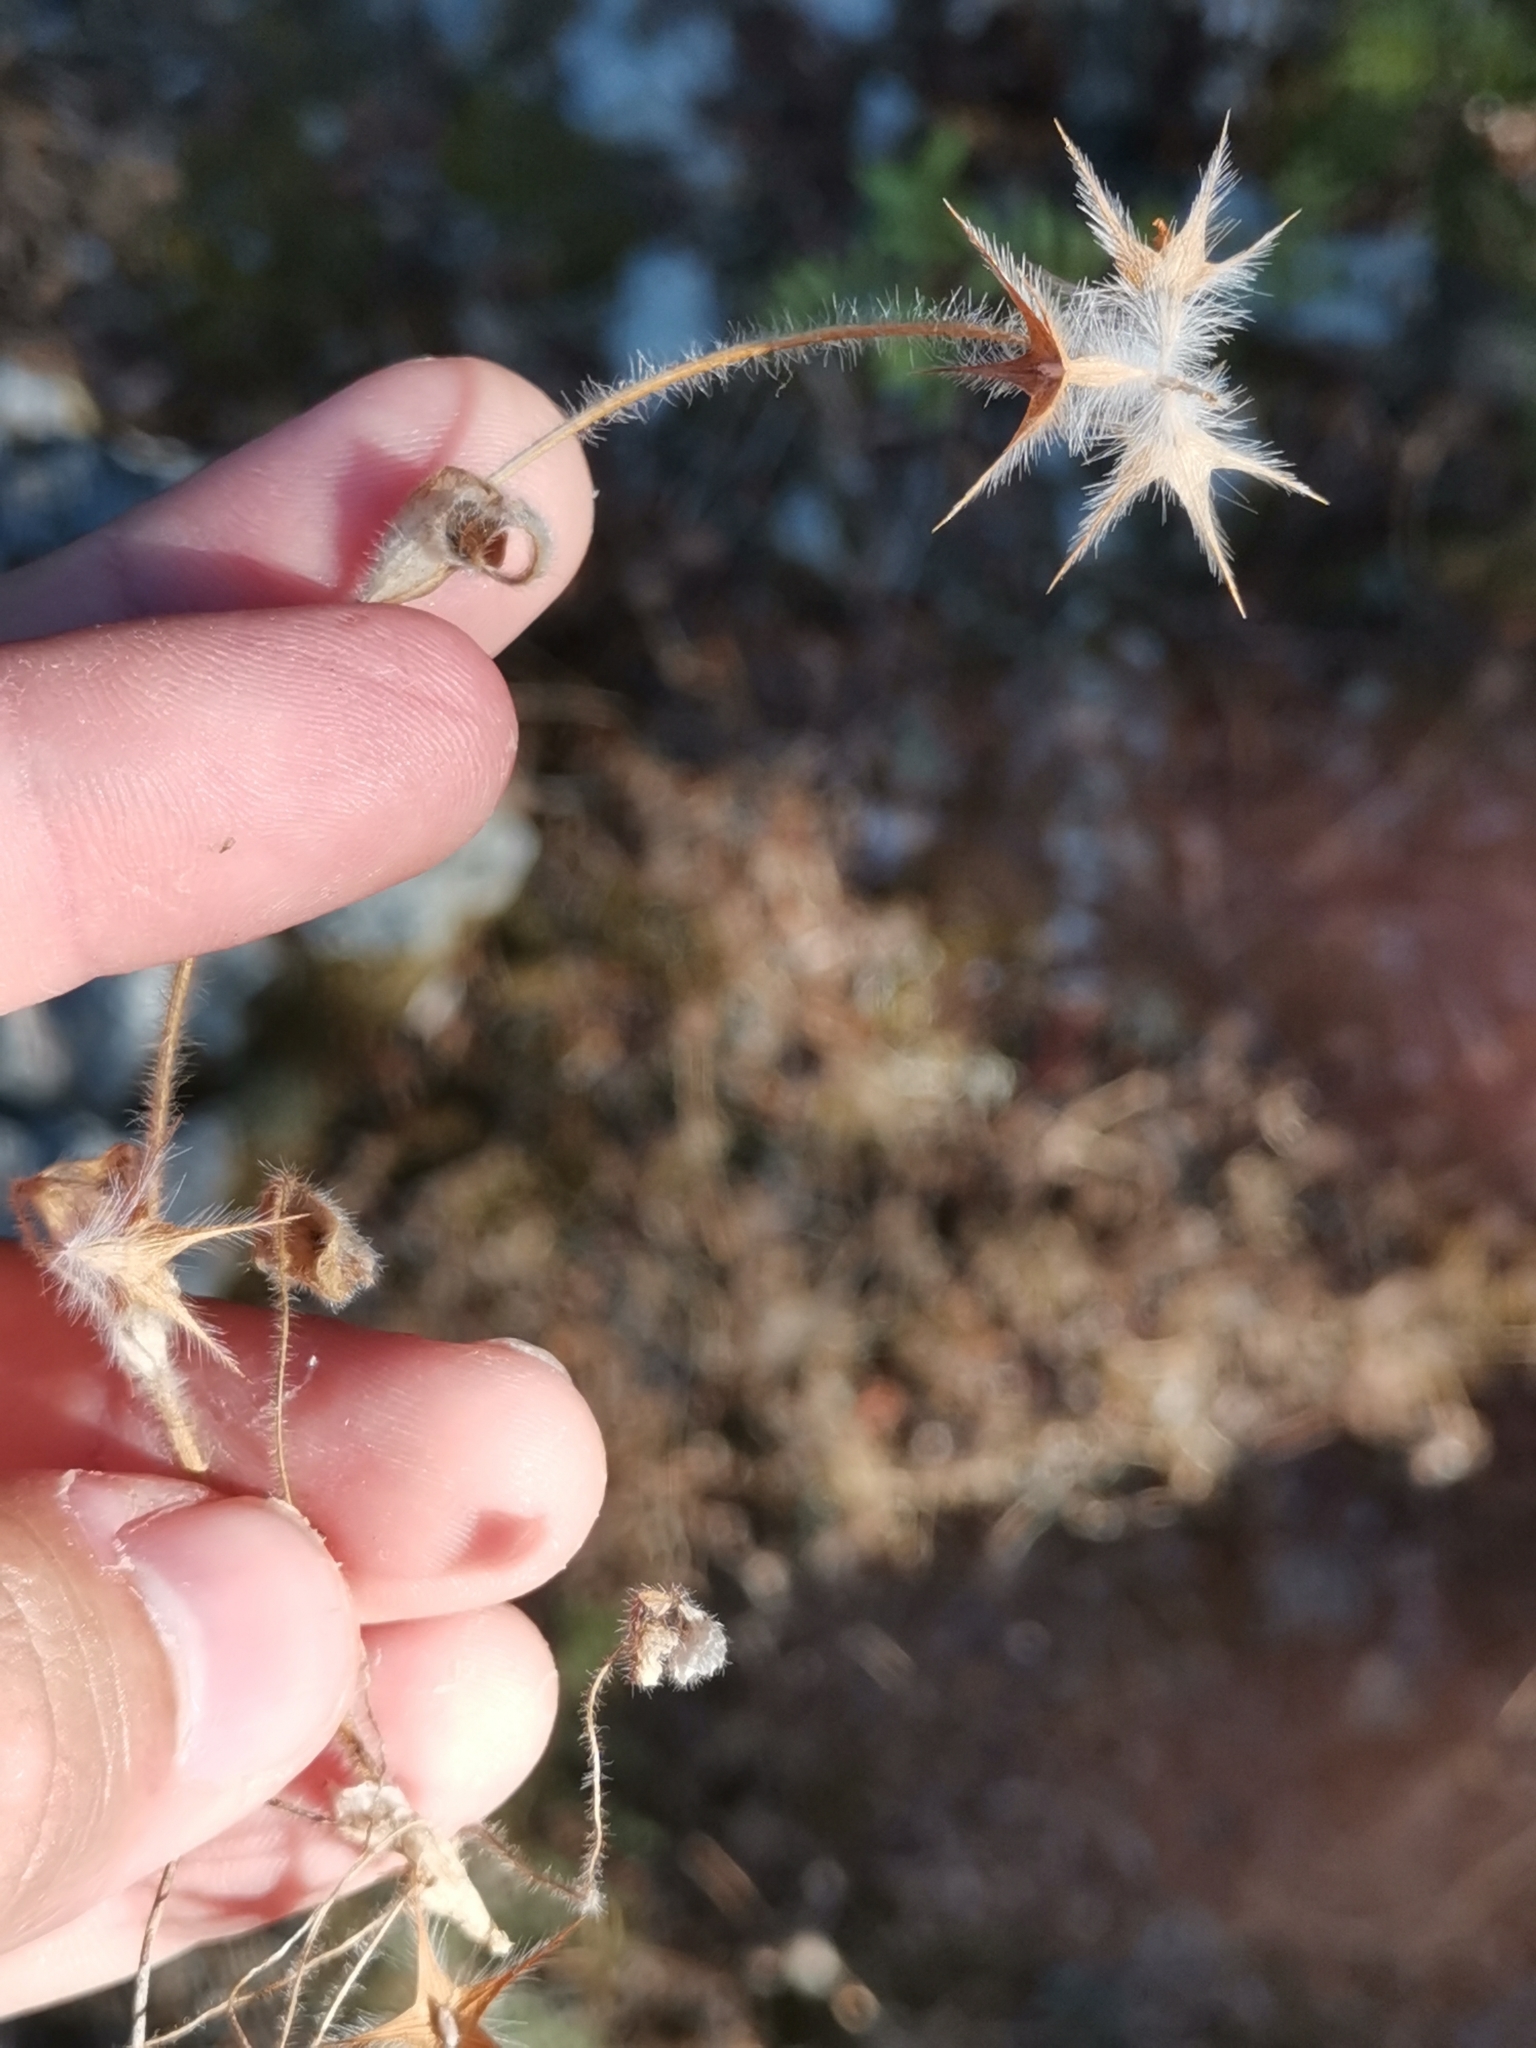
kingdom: Plantae
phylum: Tracheophyta
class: Magnoliopsida
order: Fabales
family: Fabaceae
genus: Trifolium
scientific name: Trifolium stellatum
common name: Starry clover
